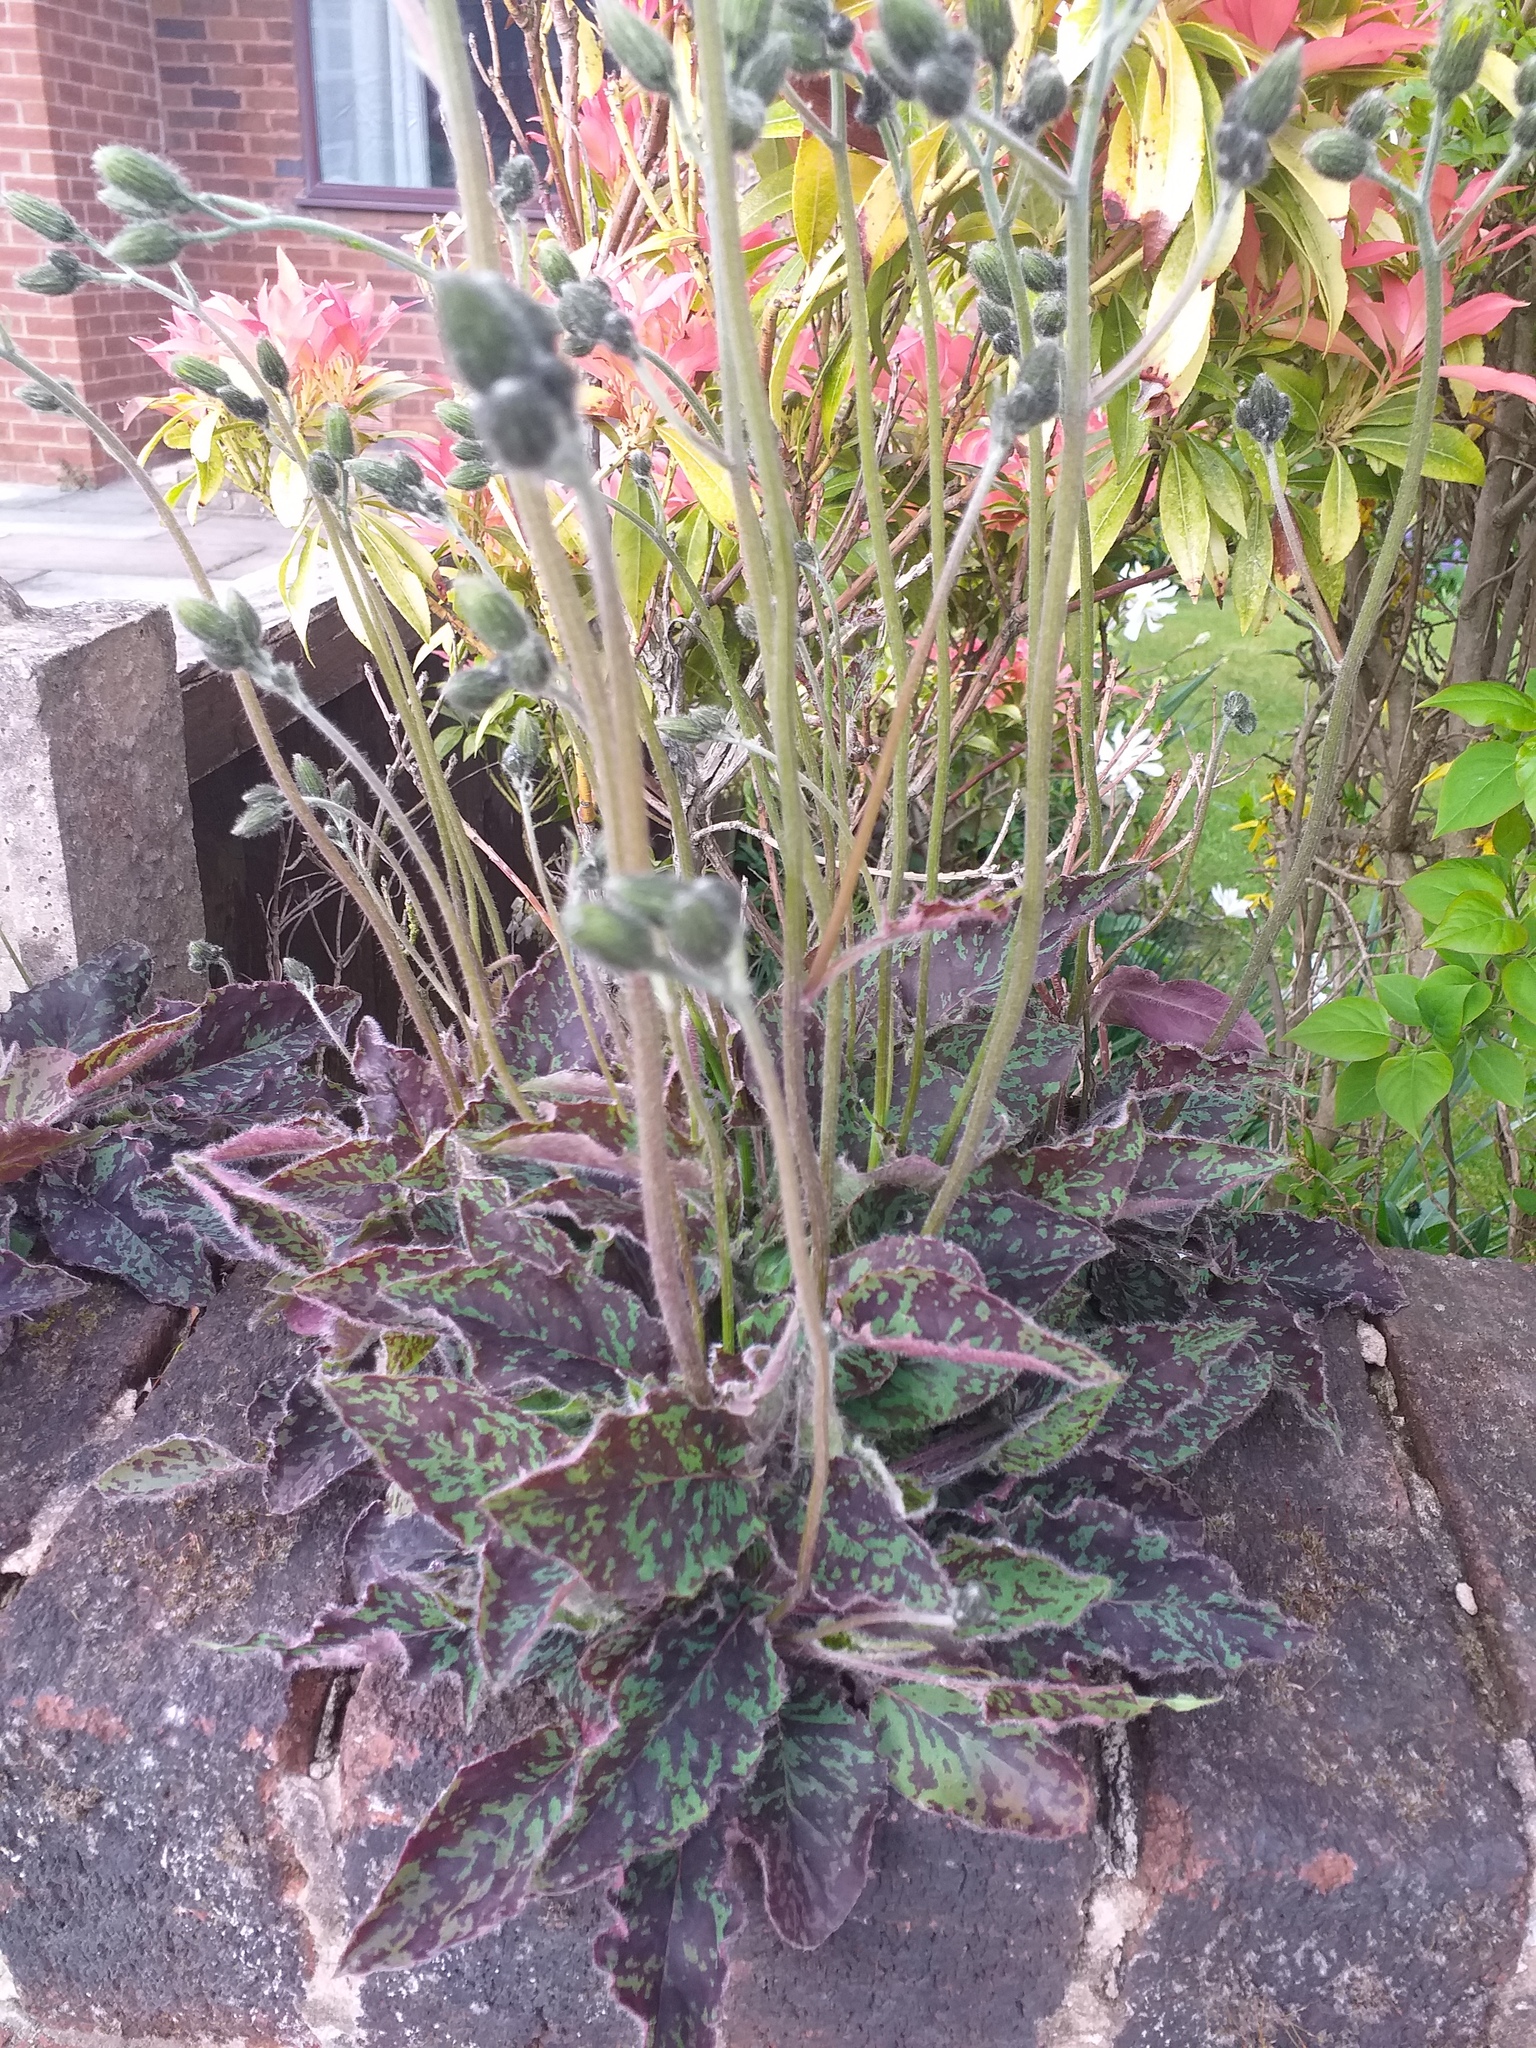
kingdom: Plantae
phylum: Tracheophyta
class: Magnoliopsida
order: Asterales
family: Asteraceae
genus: Hieracium
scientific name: Hieracium maculatum
